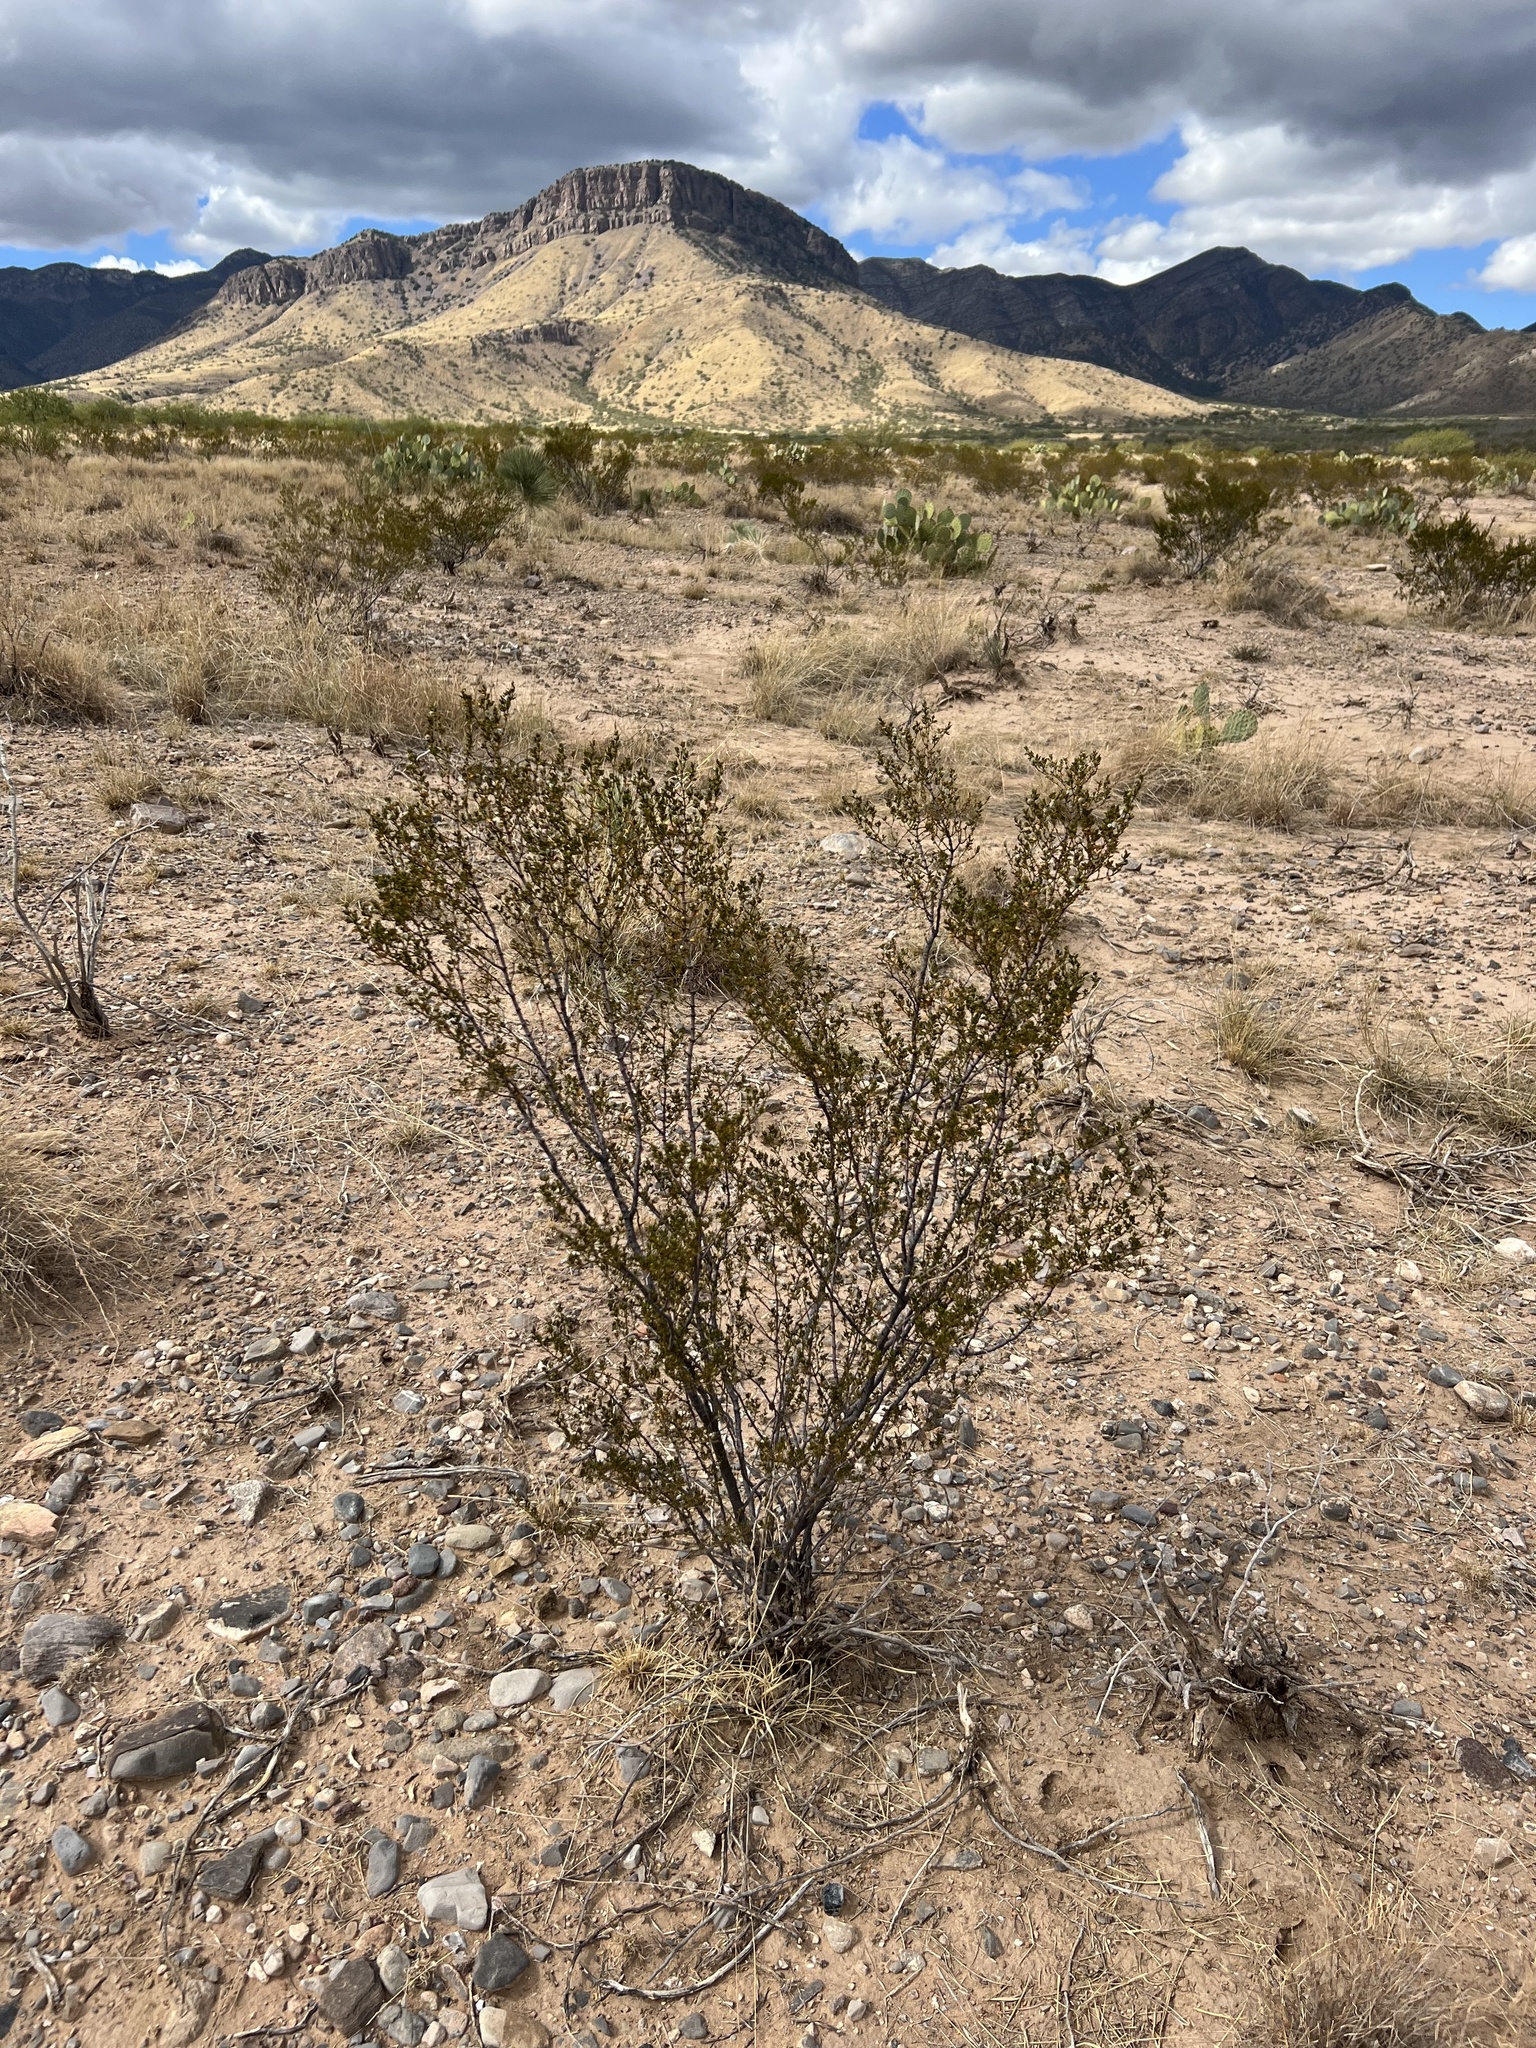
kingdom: Plantae
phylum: Tracheophyta
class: Magnoliopsida
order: Zygophyllales
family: Zygophyllaceae
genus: Larrea
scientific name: Larrea tridentata
